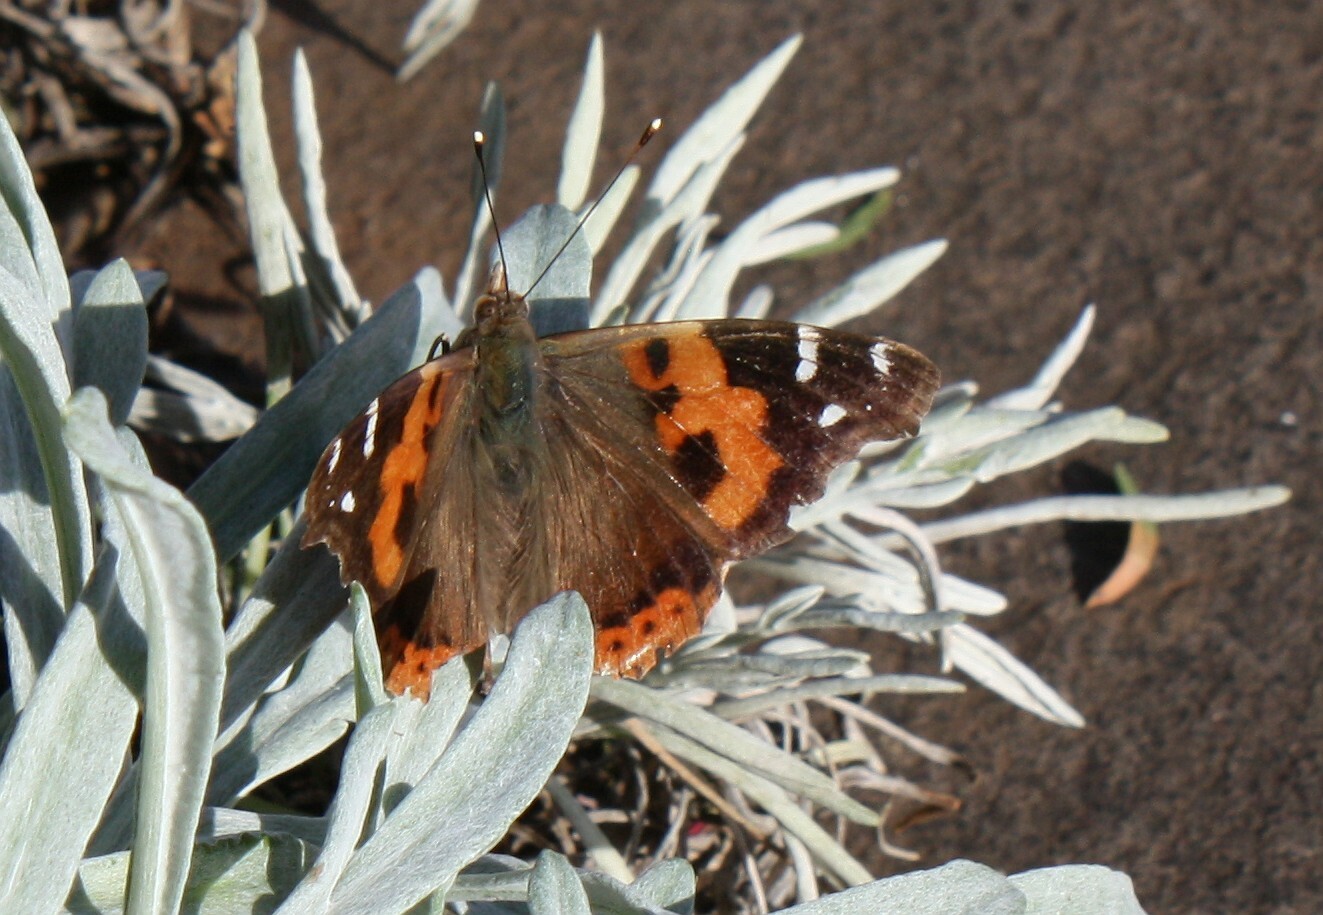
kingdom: Animalia
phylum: Arthropoda
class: Insecta
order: Lepidoptera
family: Nymphalidae
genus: Vanessa
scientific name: Vanessa vulcania
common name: Canary red admiral
